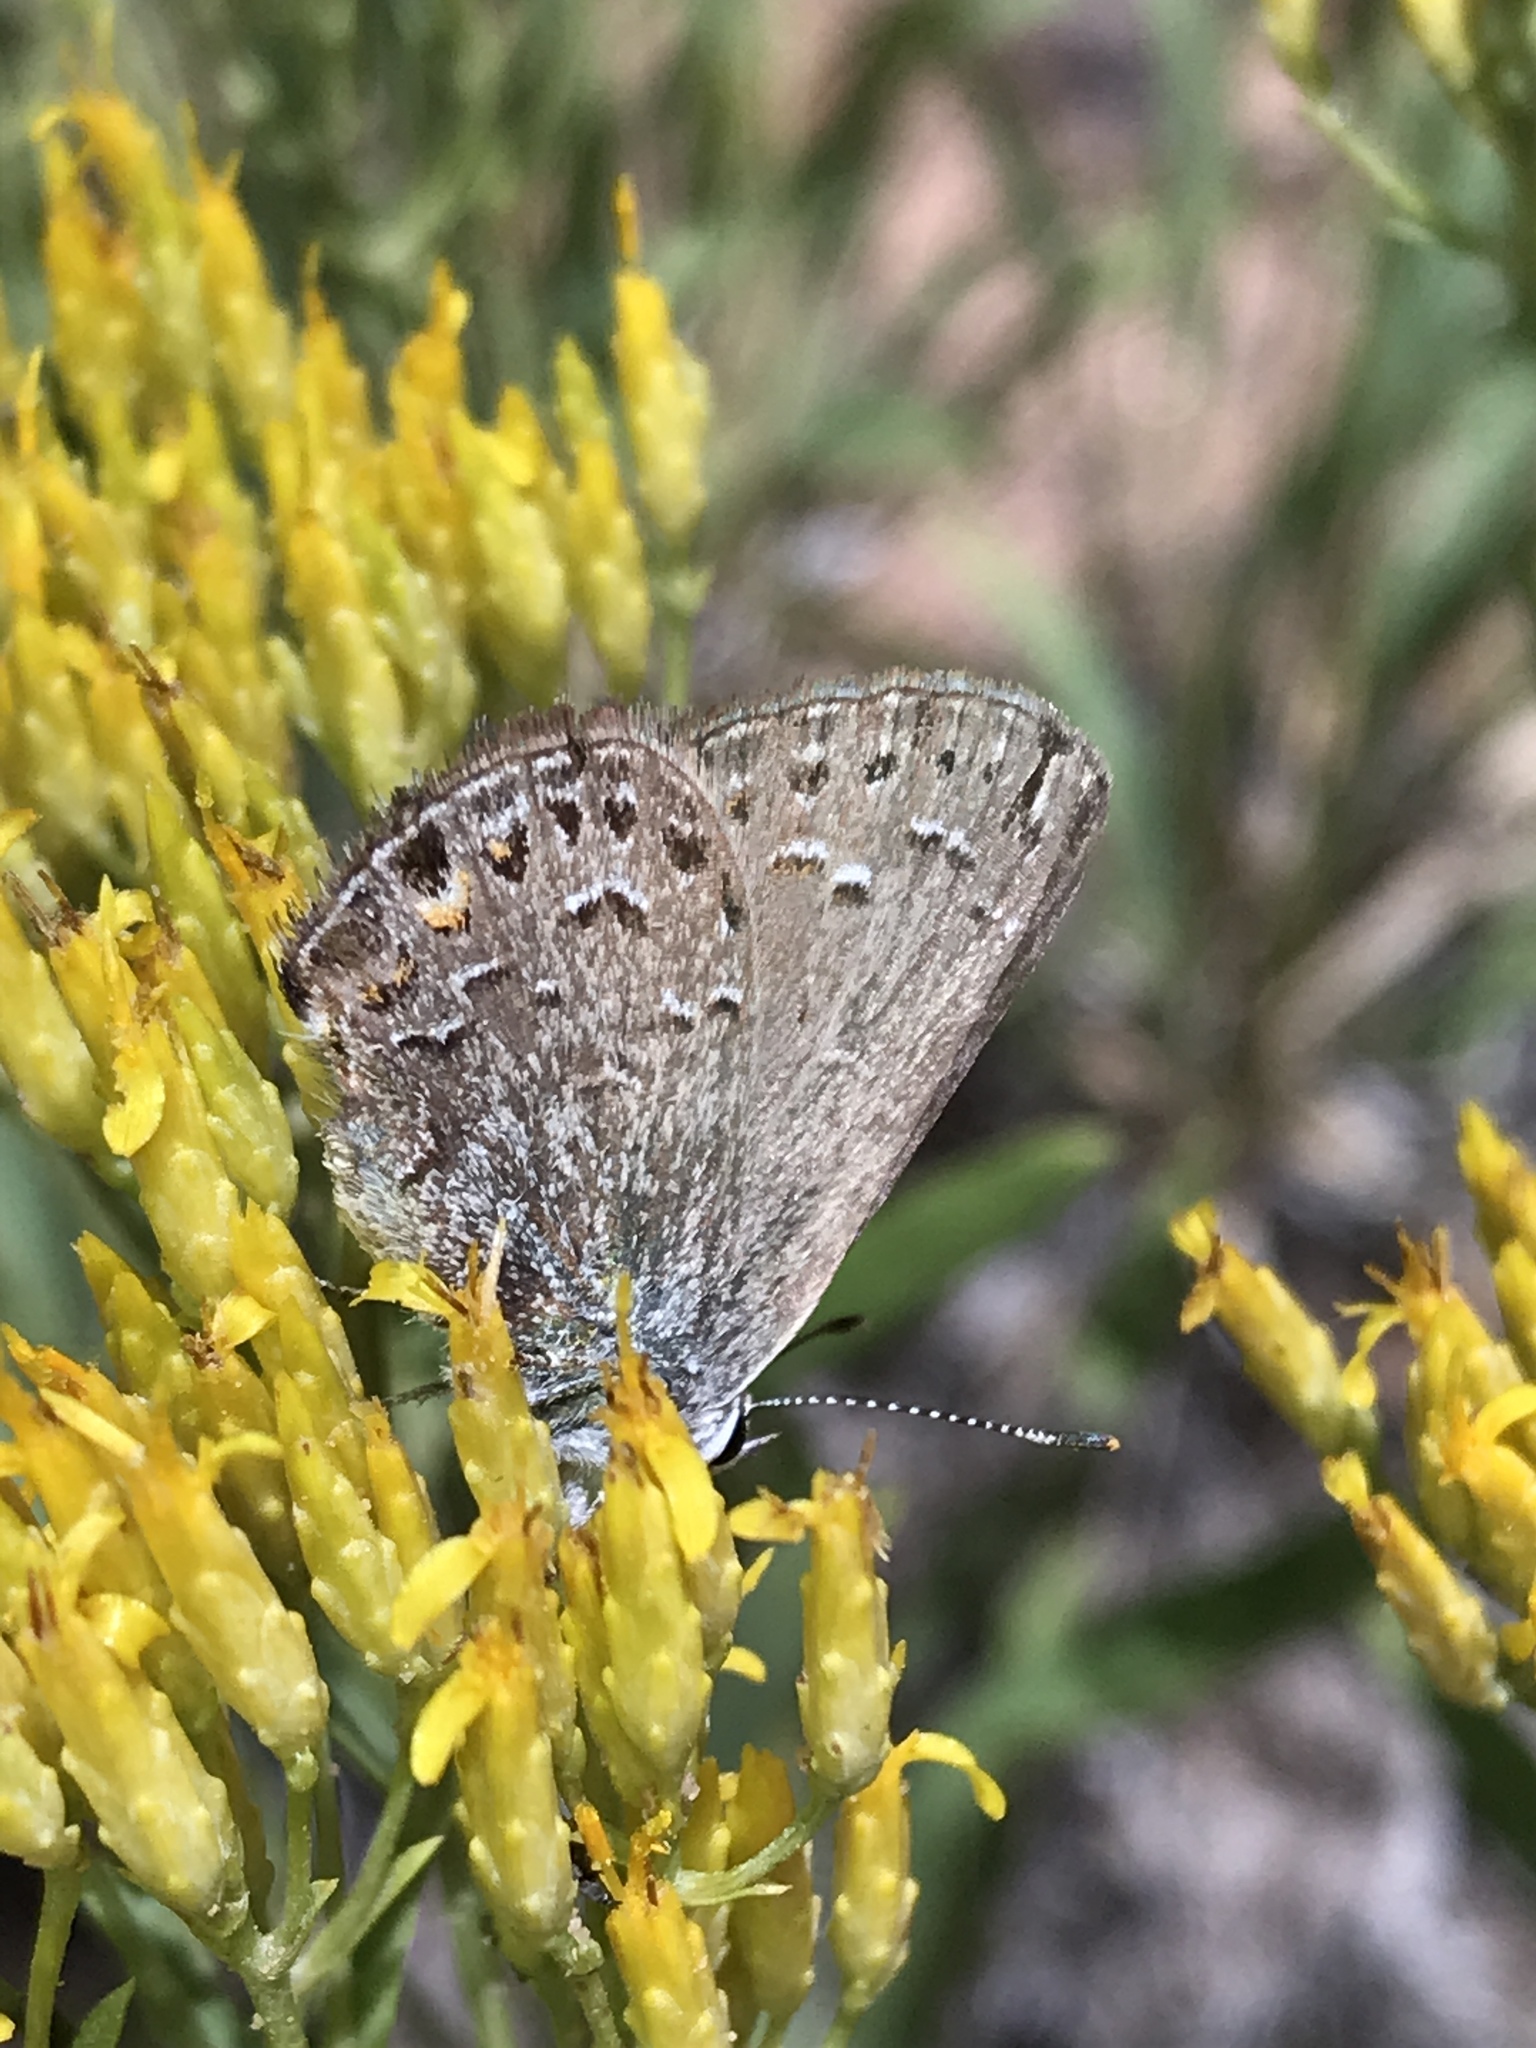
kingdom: Animalia
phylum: Arthropoda
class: Insecta
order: Lepidoptera
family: Lycaenidae
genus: Satyrium
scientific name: Satyrium behrii
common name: Behr's hairstreak
